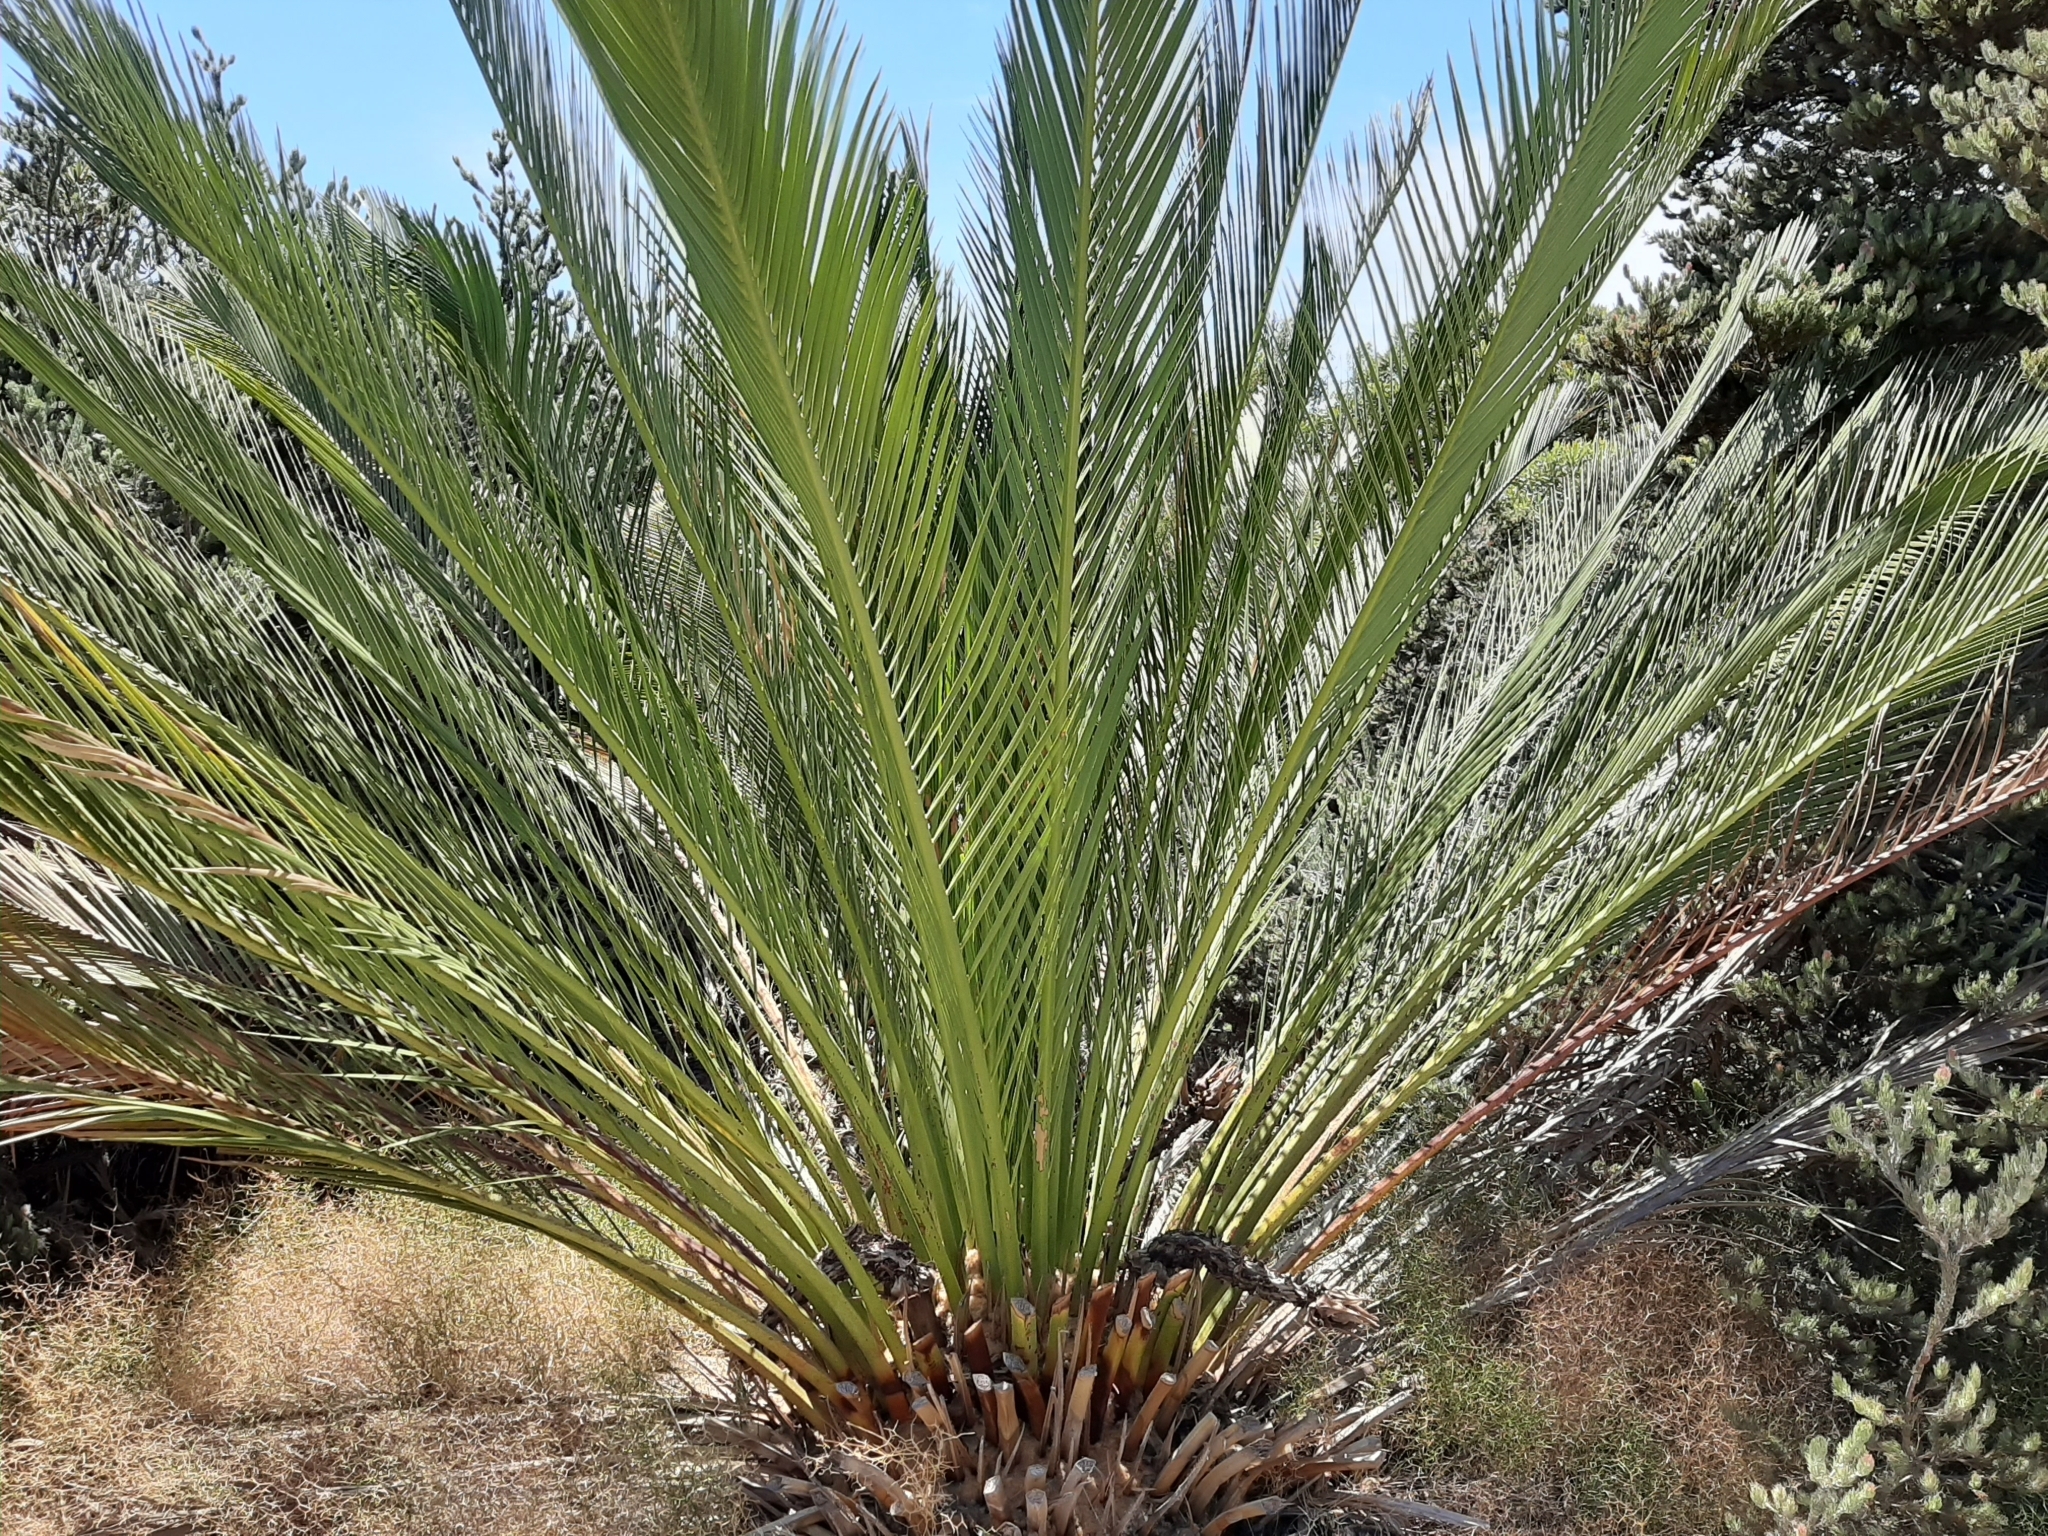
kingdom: Plantae
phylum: Tracheophyta
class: Cycadopsida
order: Cycadales
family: Zamiaceae
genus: Macrozamia
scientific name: Macrozamia fraseri
